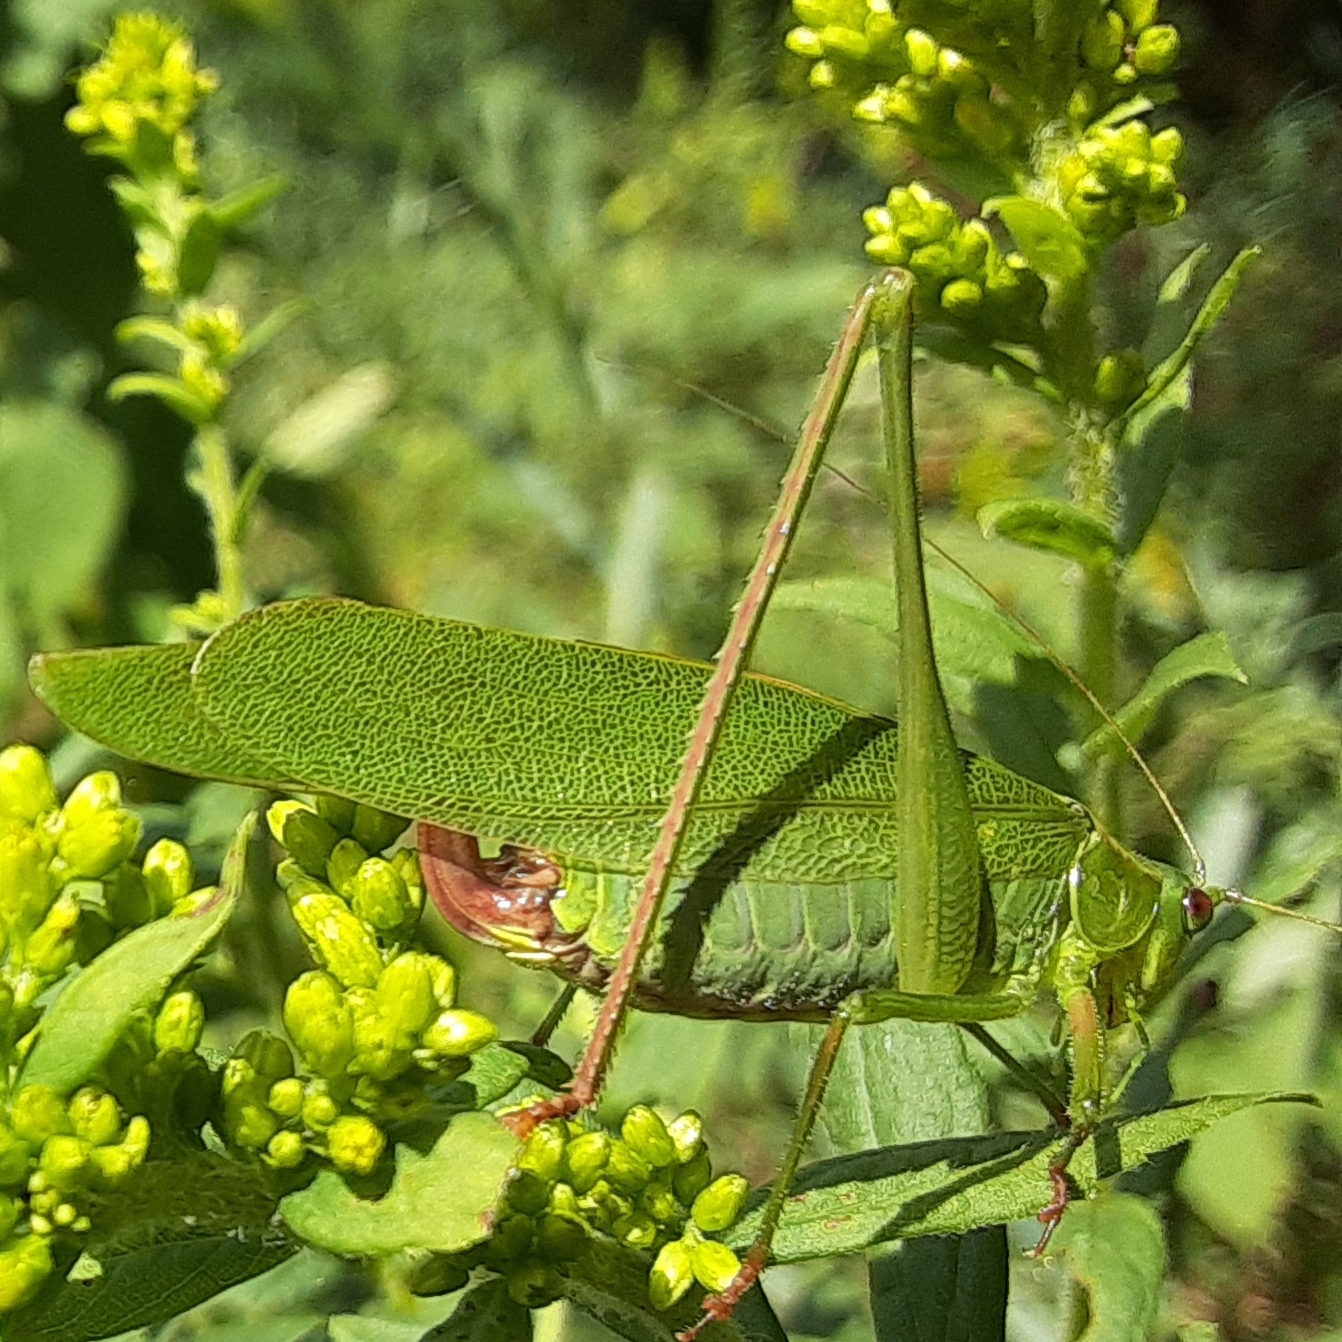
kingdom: Animalia
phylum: Arthropoda
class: Insecta
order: Orthoptera
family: Tettigoniidae
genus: Scudderia
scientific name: Scudderia furcata
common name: Fork-tailed bush katydid
